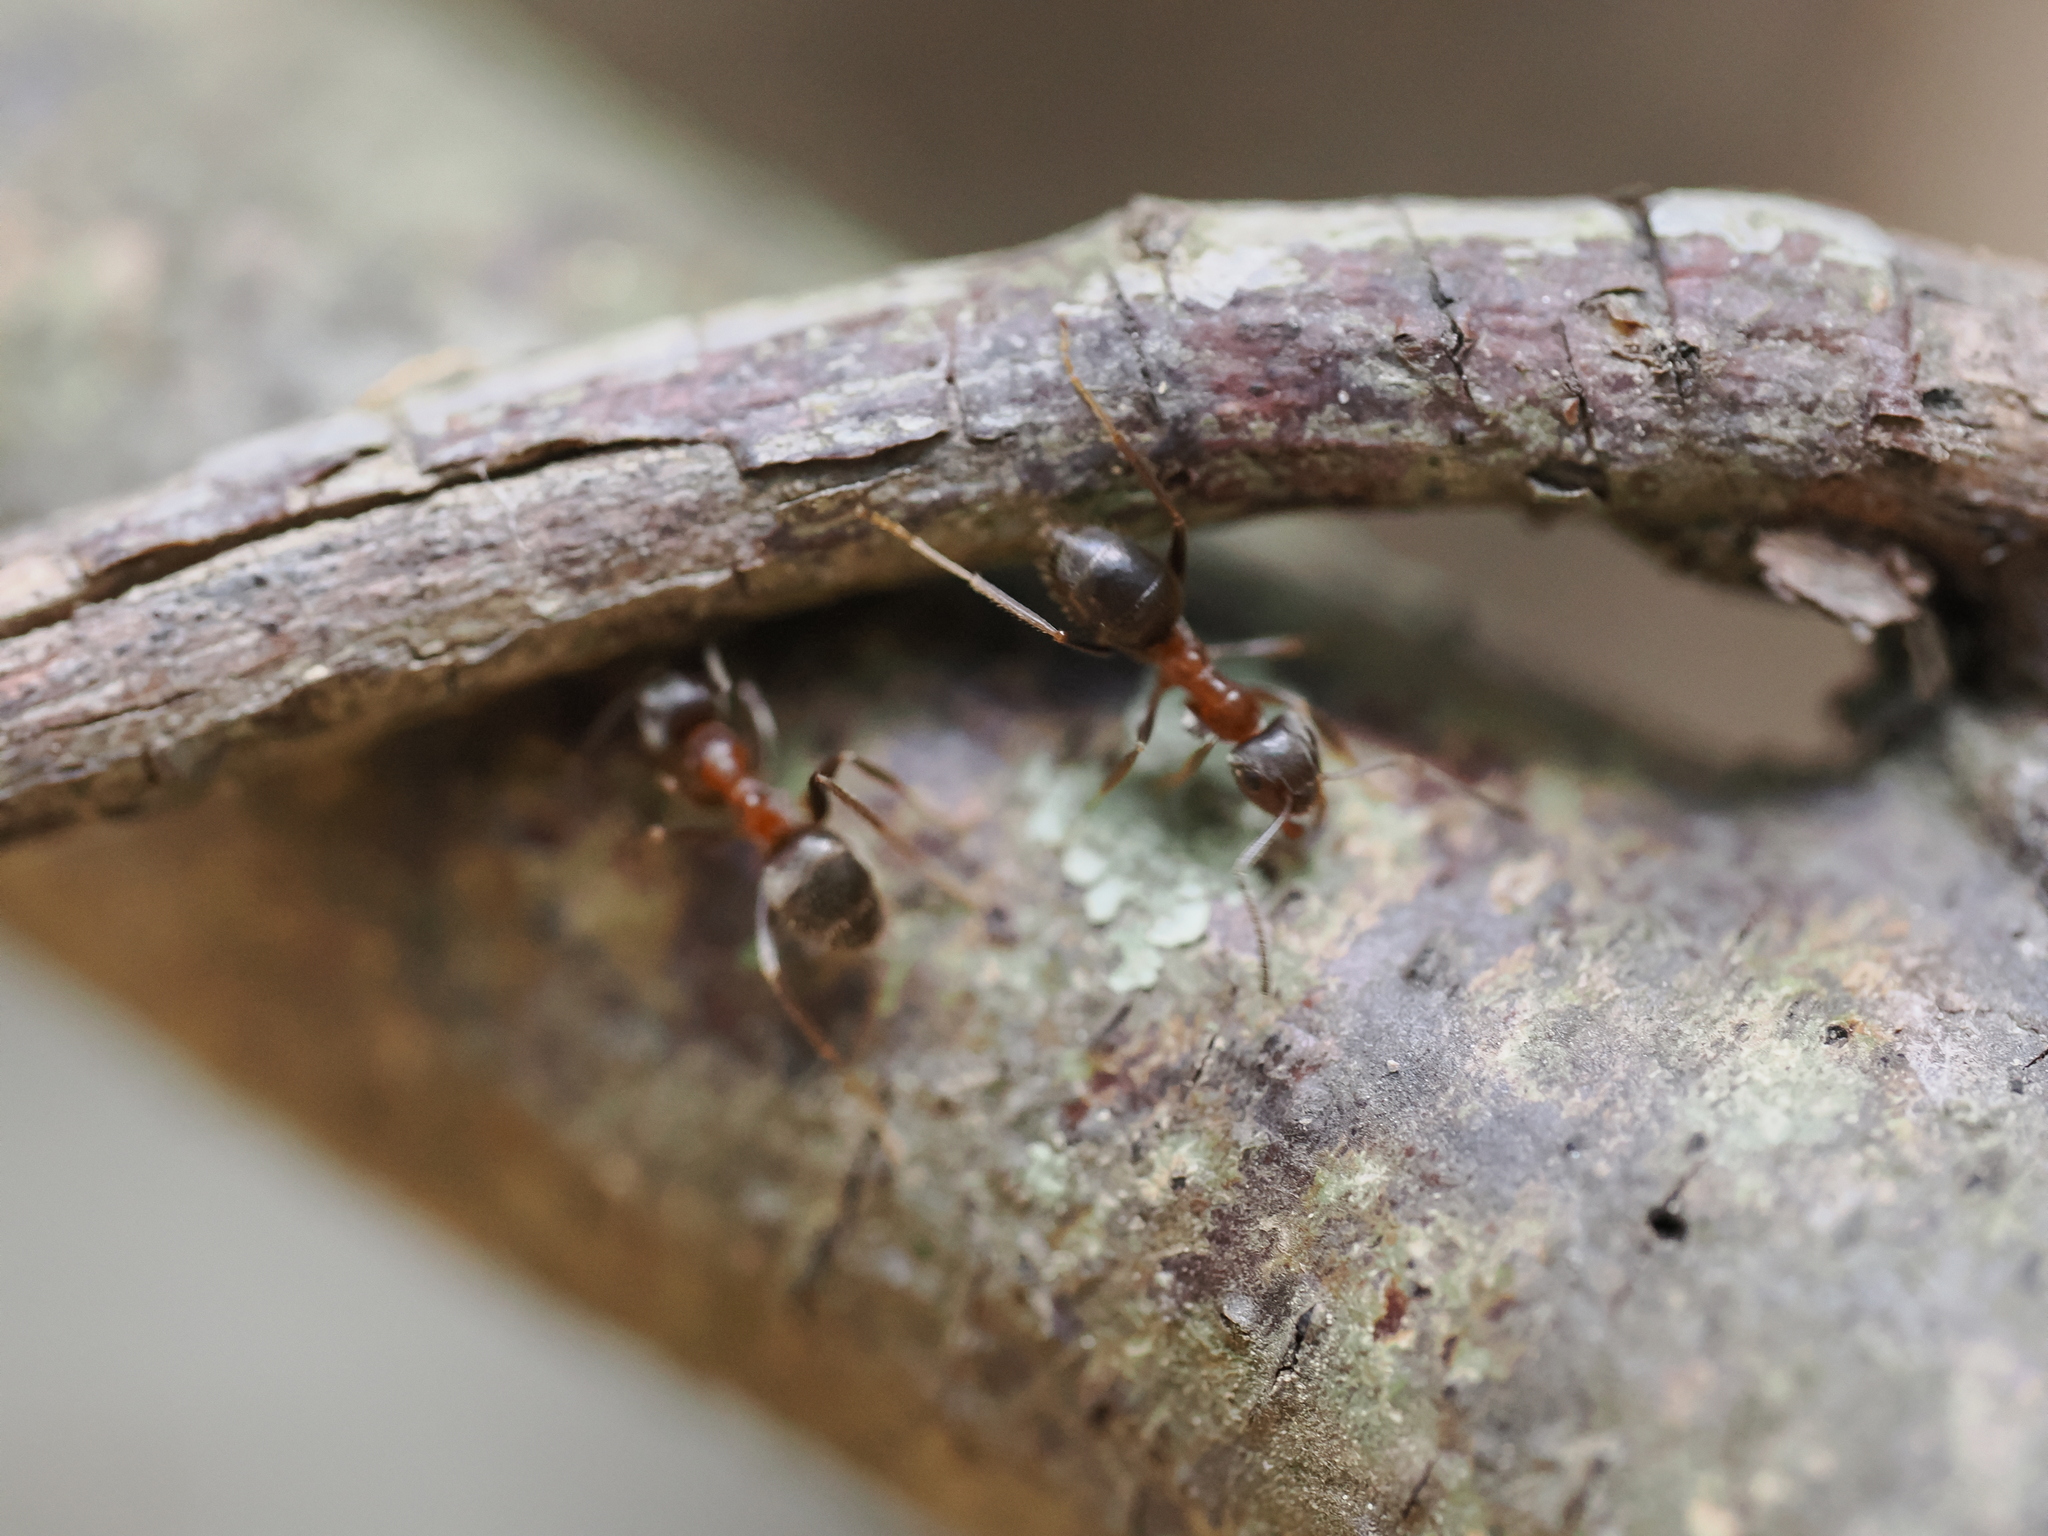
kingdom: Animalia
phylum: Arthropoda
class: Insecta
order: Hymenoptera
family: Formicidae
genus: Lasius
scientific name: Lasius emarginatus
